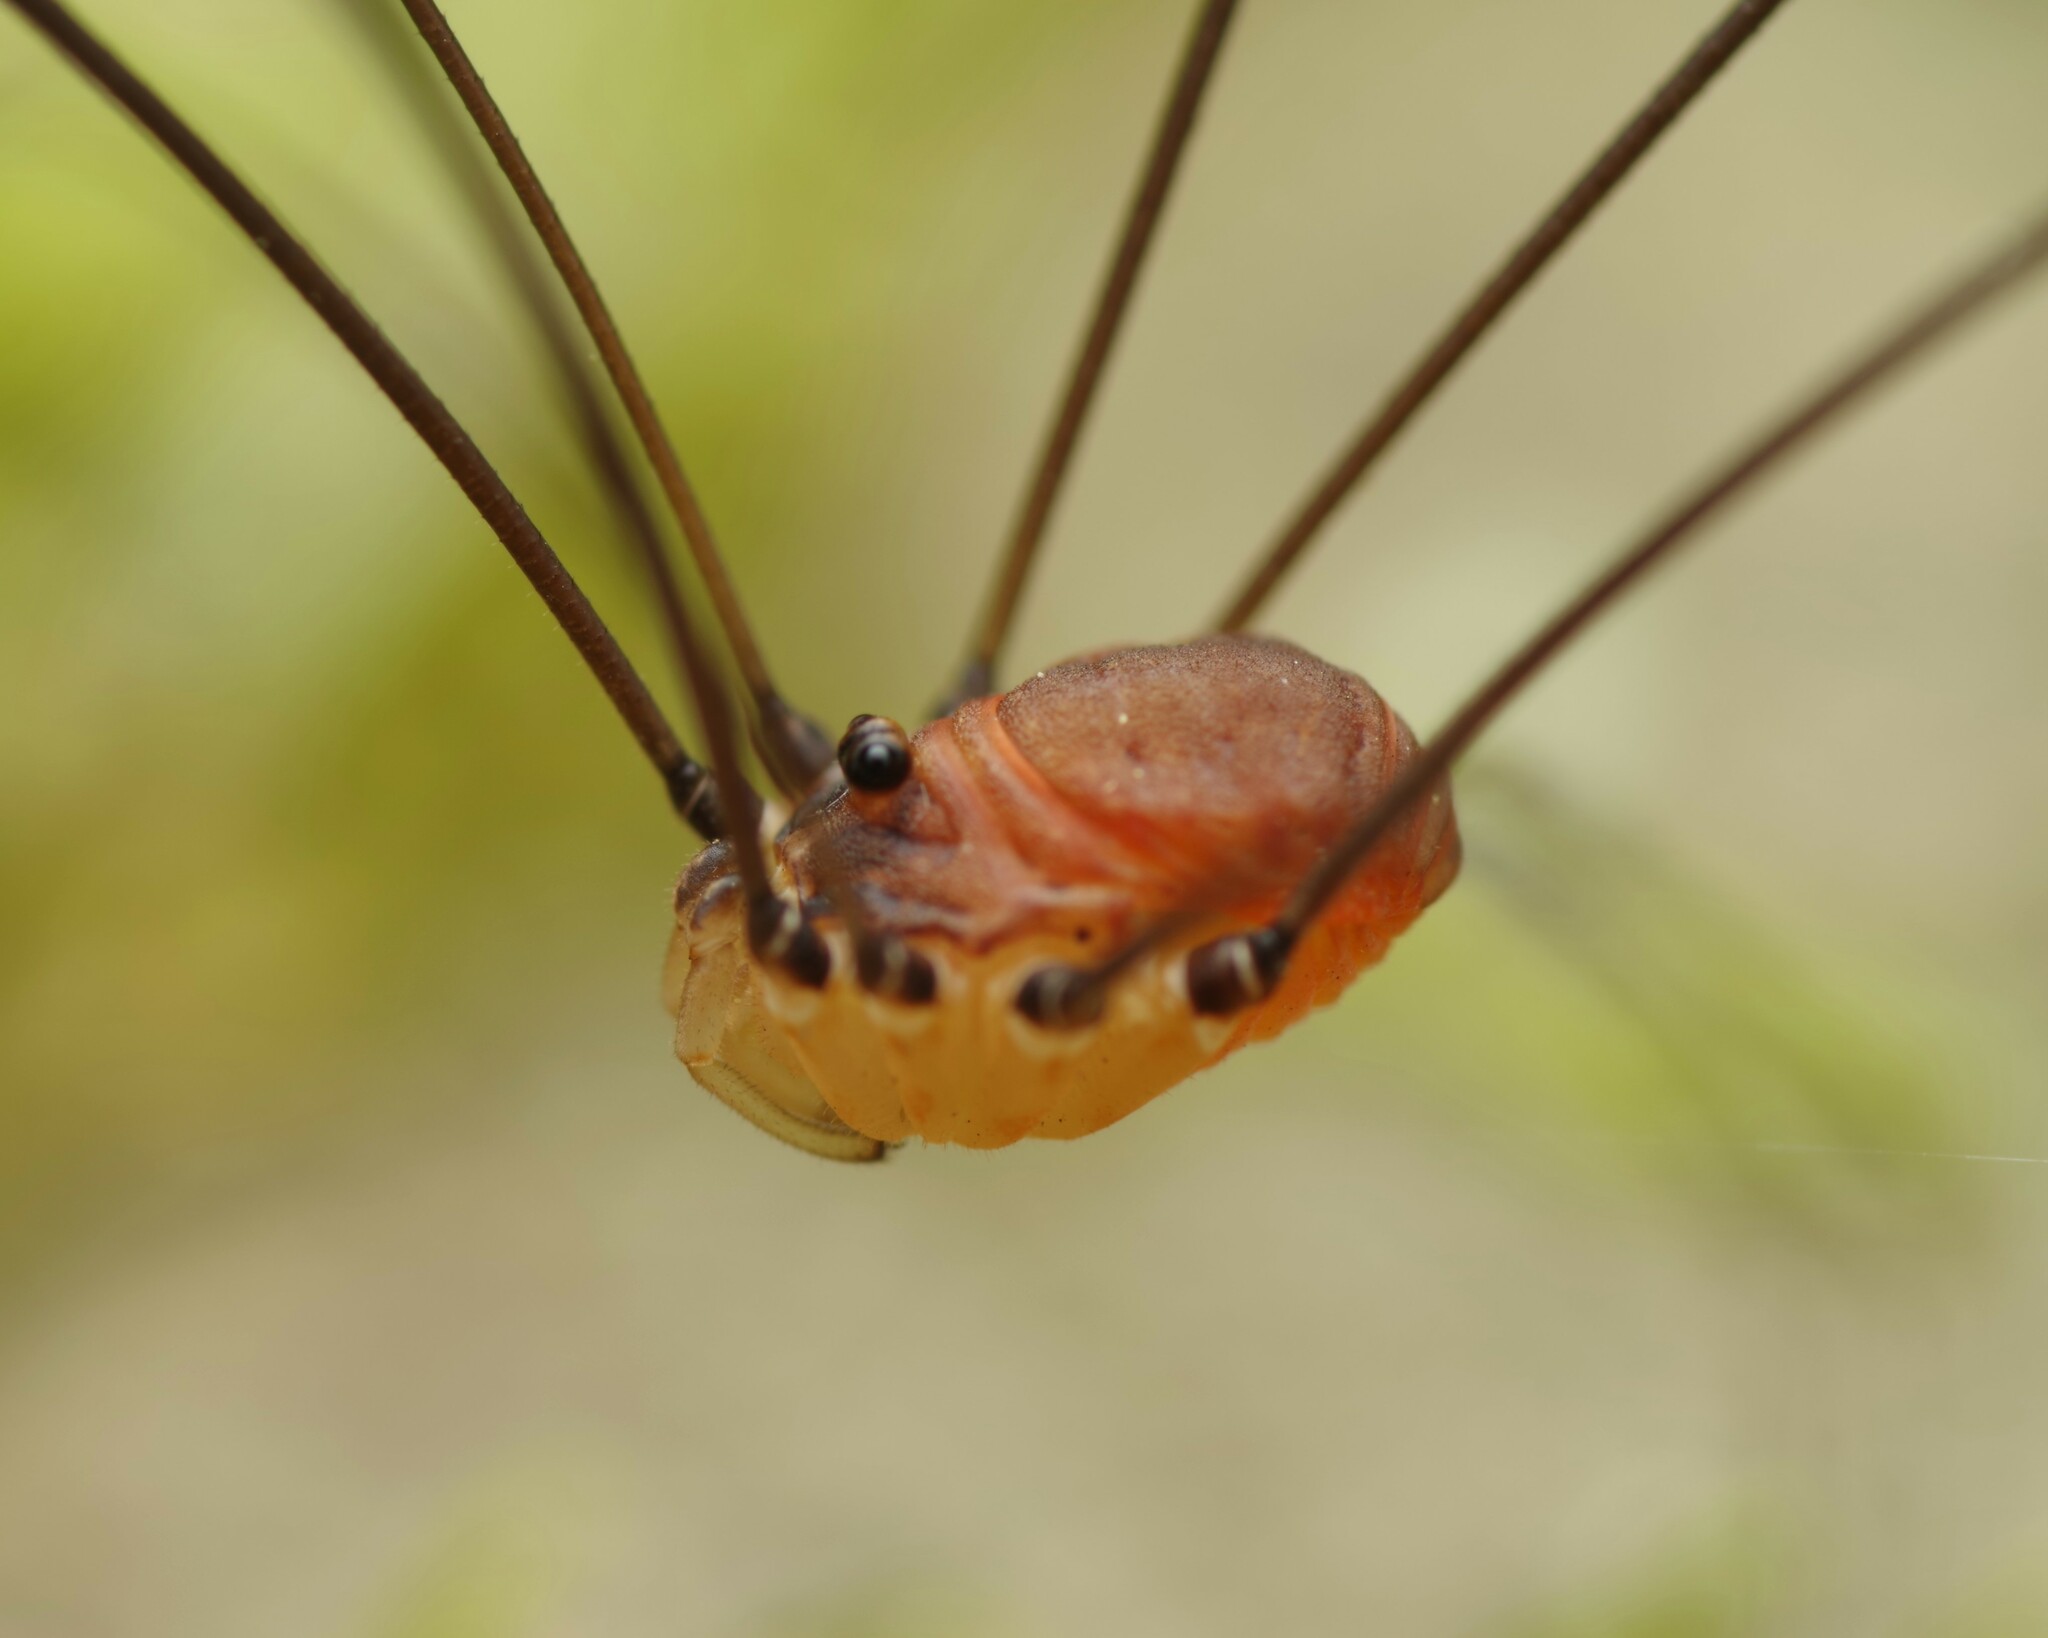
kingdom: Animalia
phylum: Arthropoda
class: Arachnida
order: Opiliones
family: Sclerosomatidae
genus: Leiobunum
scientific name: Leiobunum blackwalli
